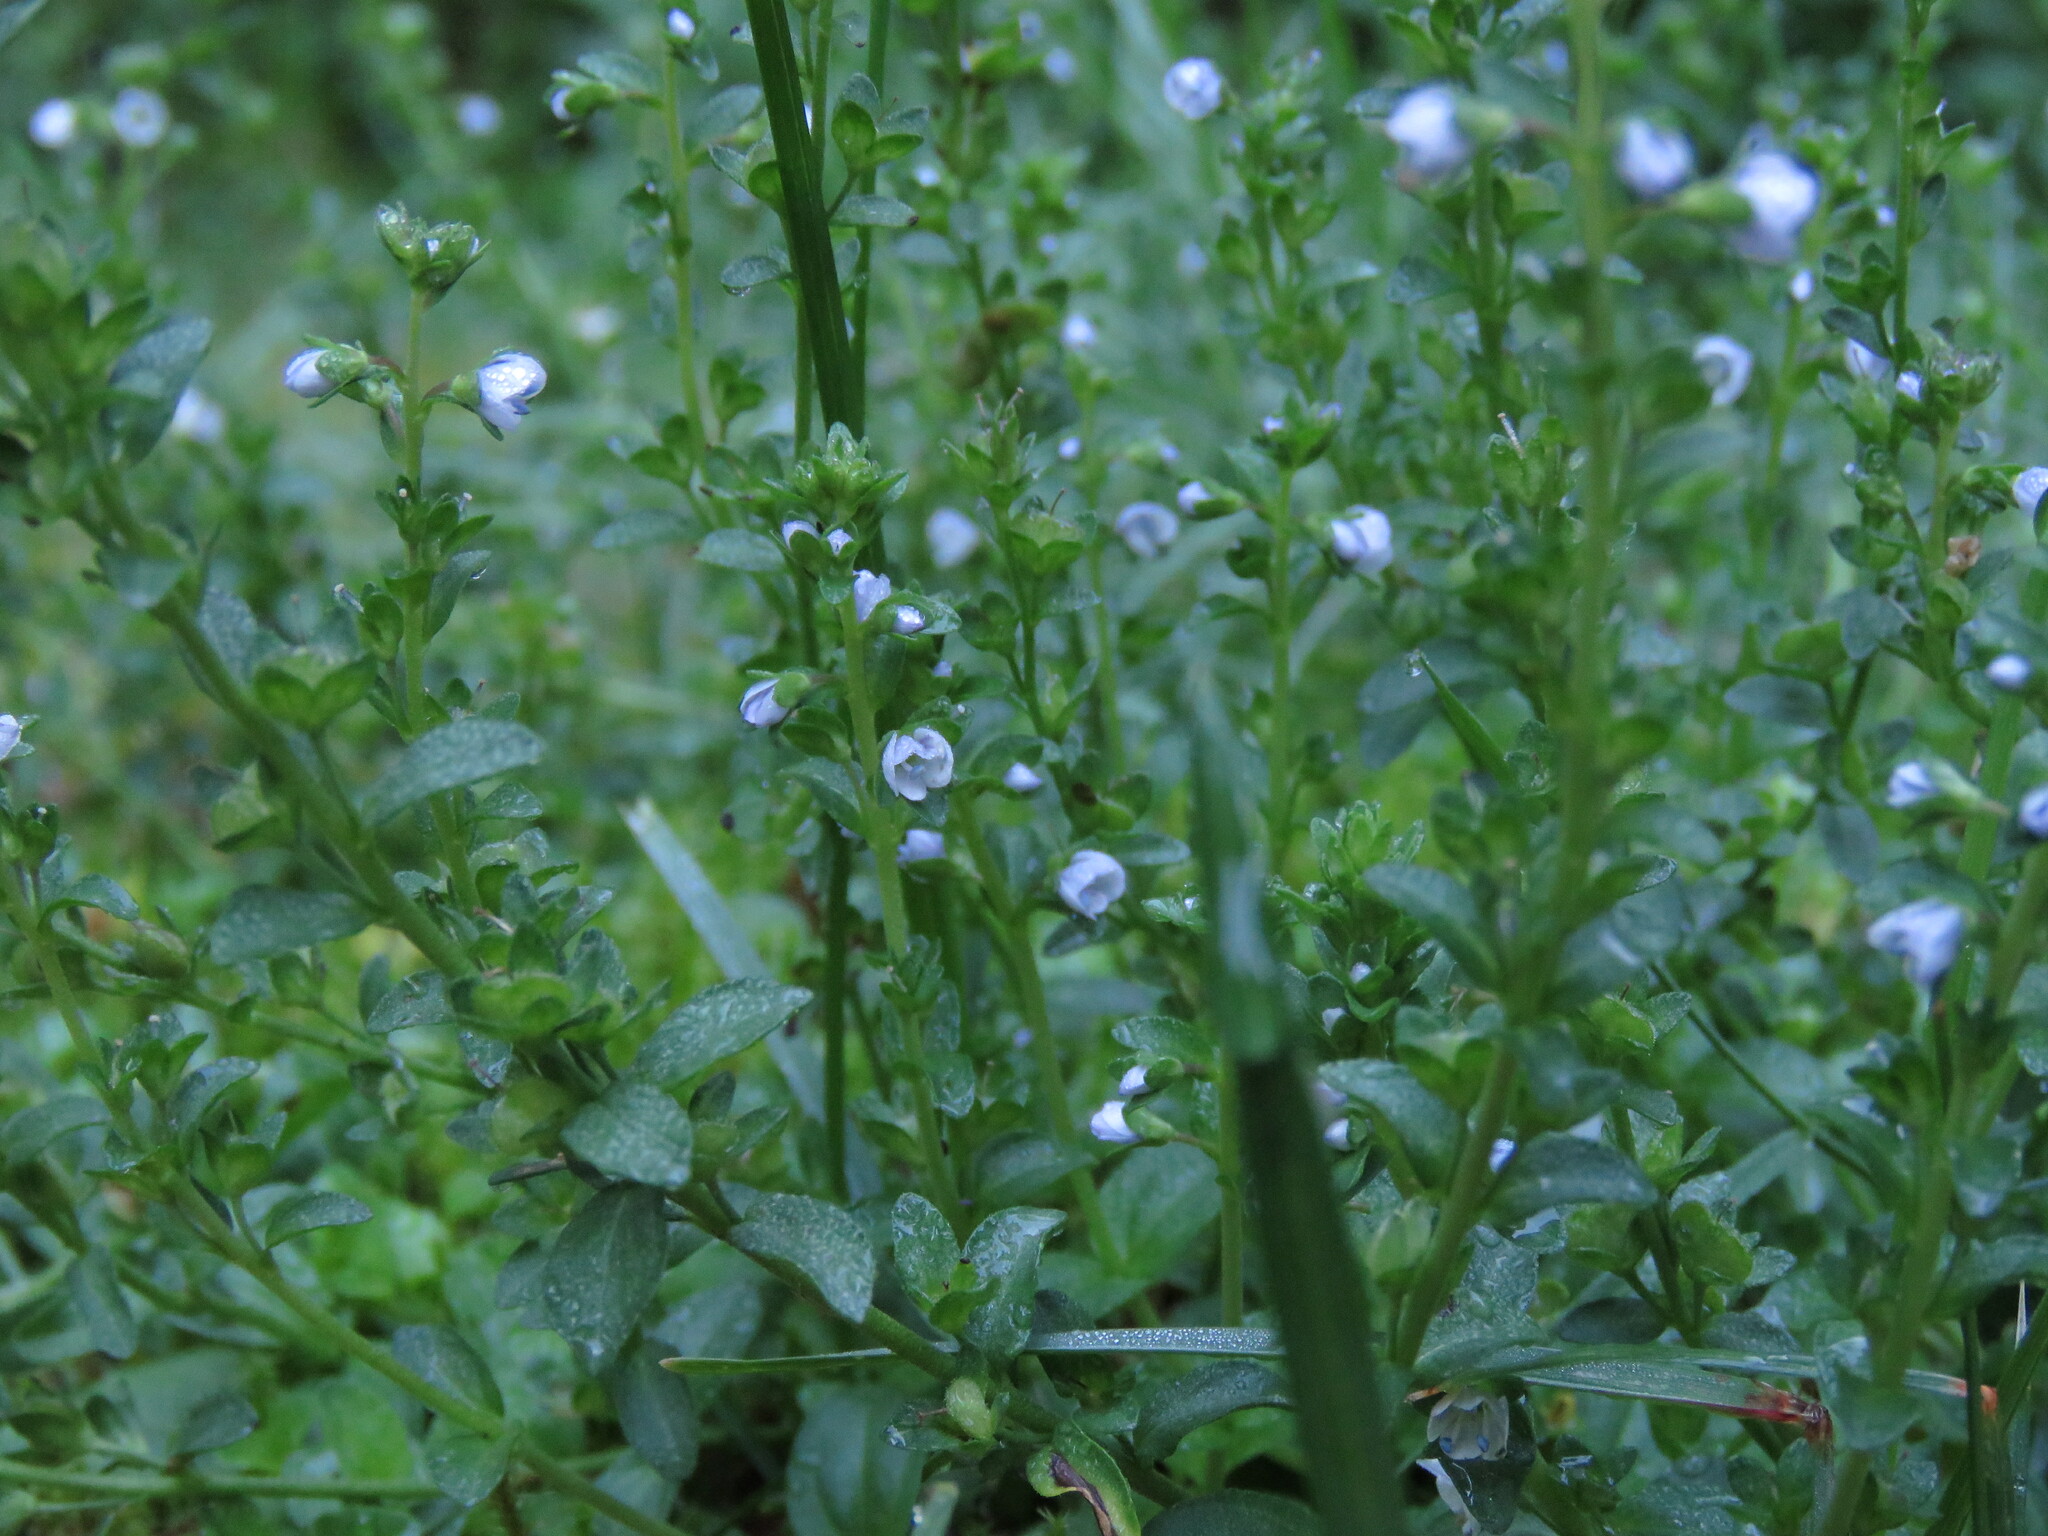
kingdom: Plantae
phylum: Tracheophyta
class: Magnoliopsida
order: Lamiales
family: Plantaginaceae
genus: Veronica
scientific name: Veronica serpyllifolia
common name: Thyme-leaved speedwell
